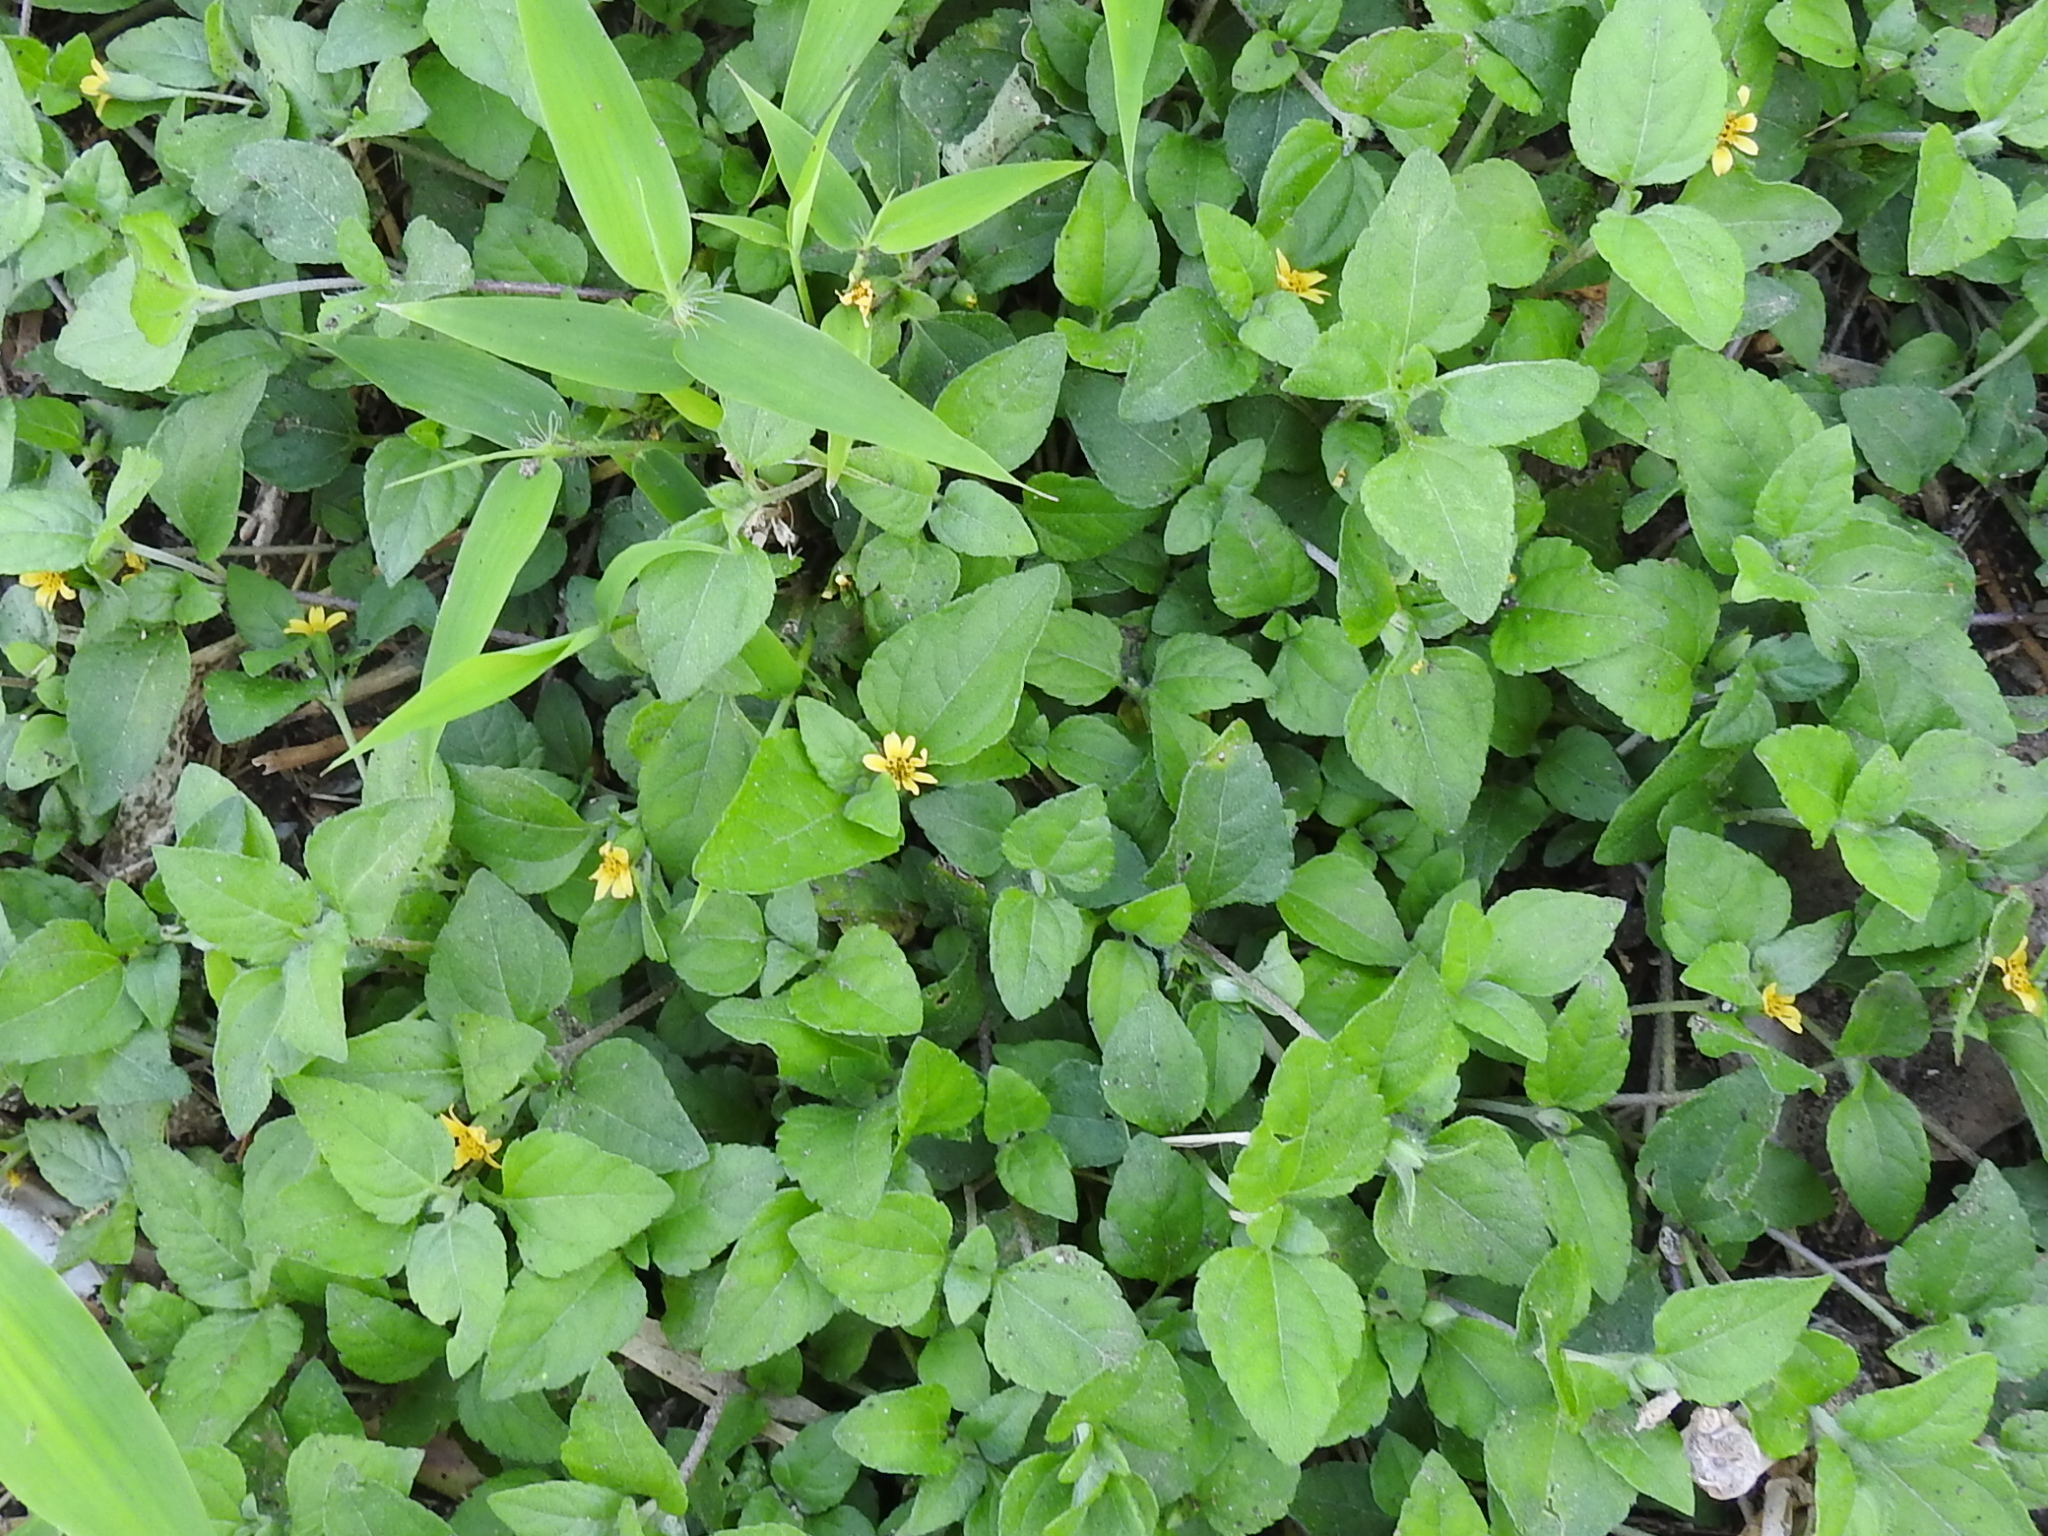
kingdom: Plantae
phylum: Tracheophyta
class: Magnoliopsida
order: Asterales
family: Asteraceae
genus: Calyptocarpus
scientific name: Calyptocarpus vialis
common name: Straggler daisy
